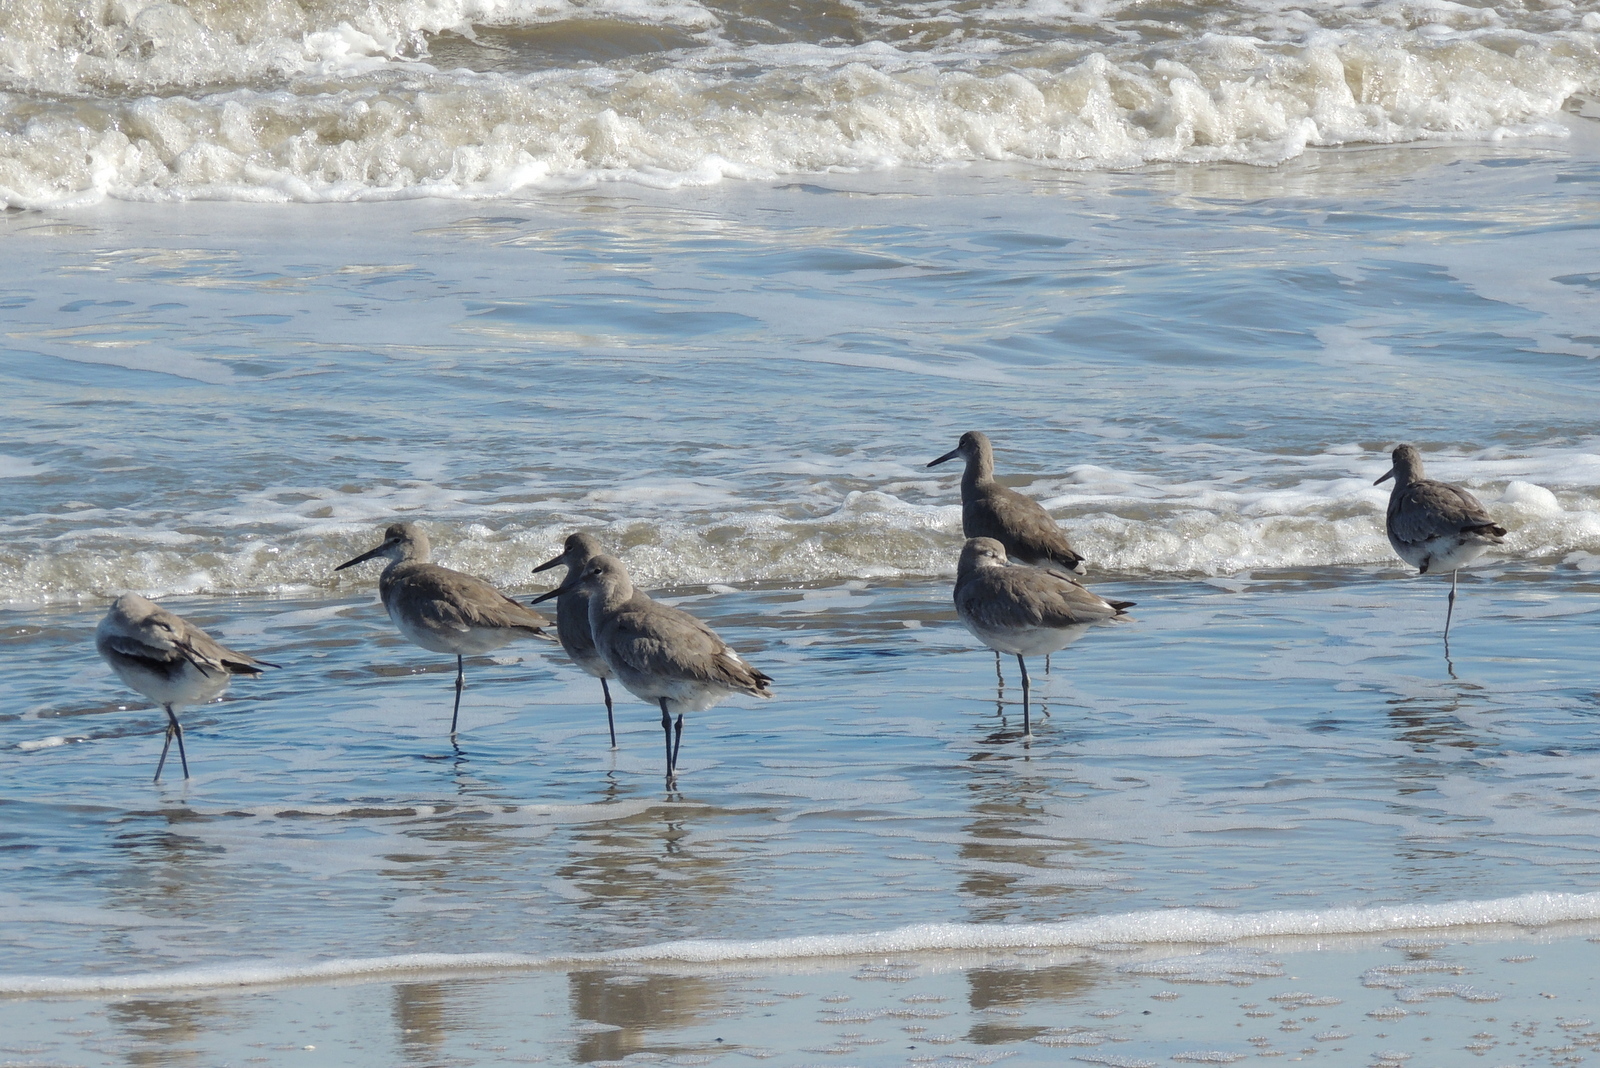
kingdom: Animalia
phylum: Chordata
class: Aves
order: Charadriiformes
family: Scolopacidae
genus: Tringa
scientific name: Tringa semipalmata
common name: Willet
